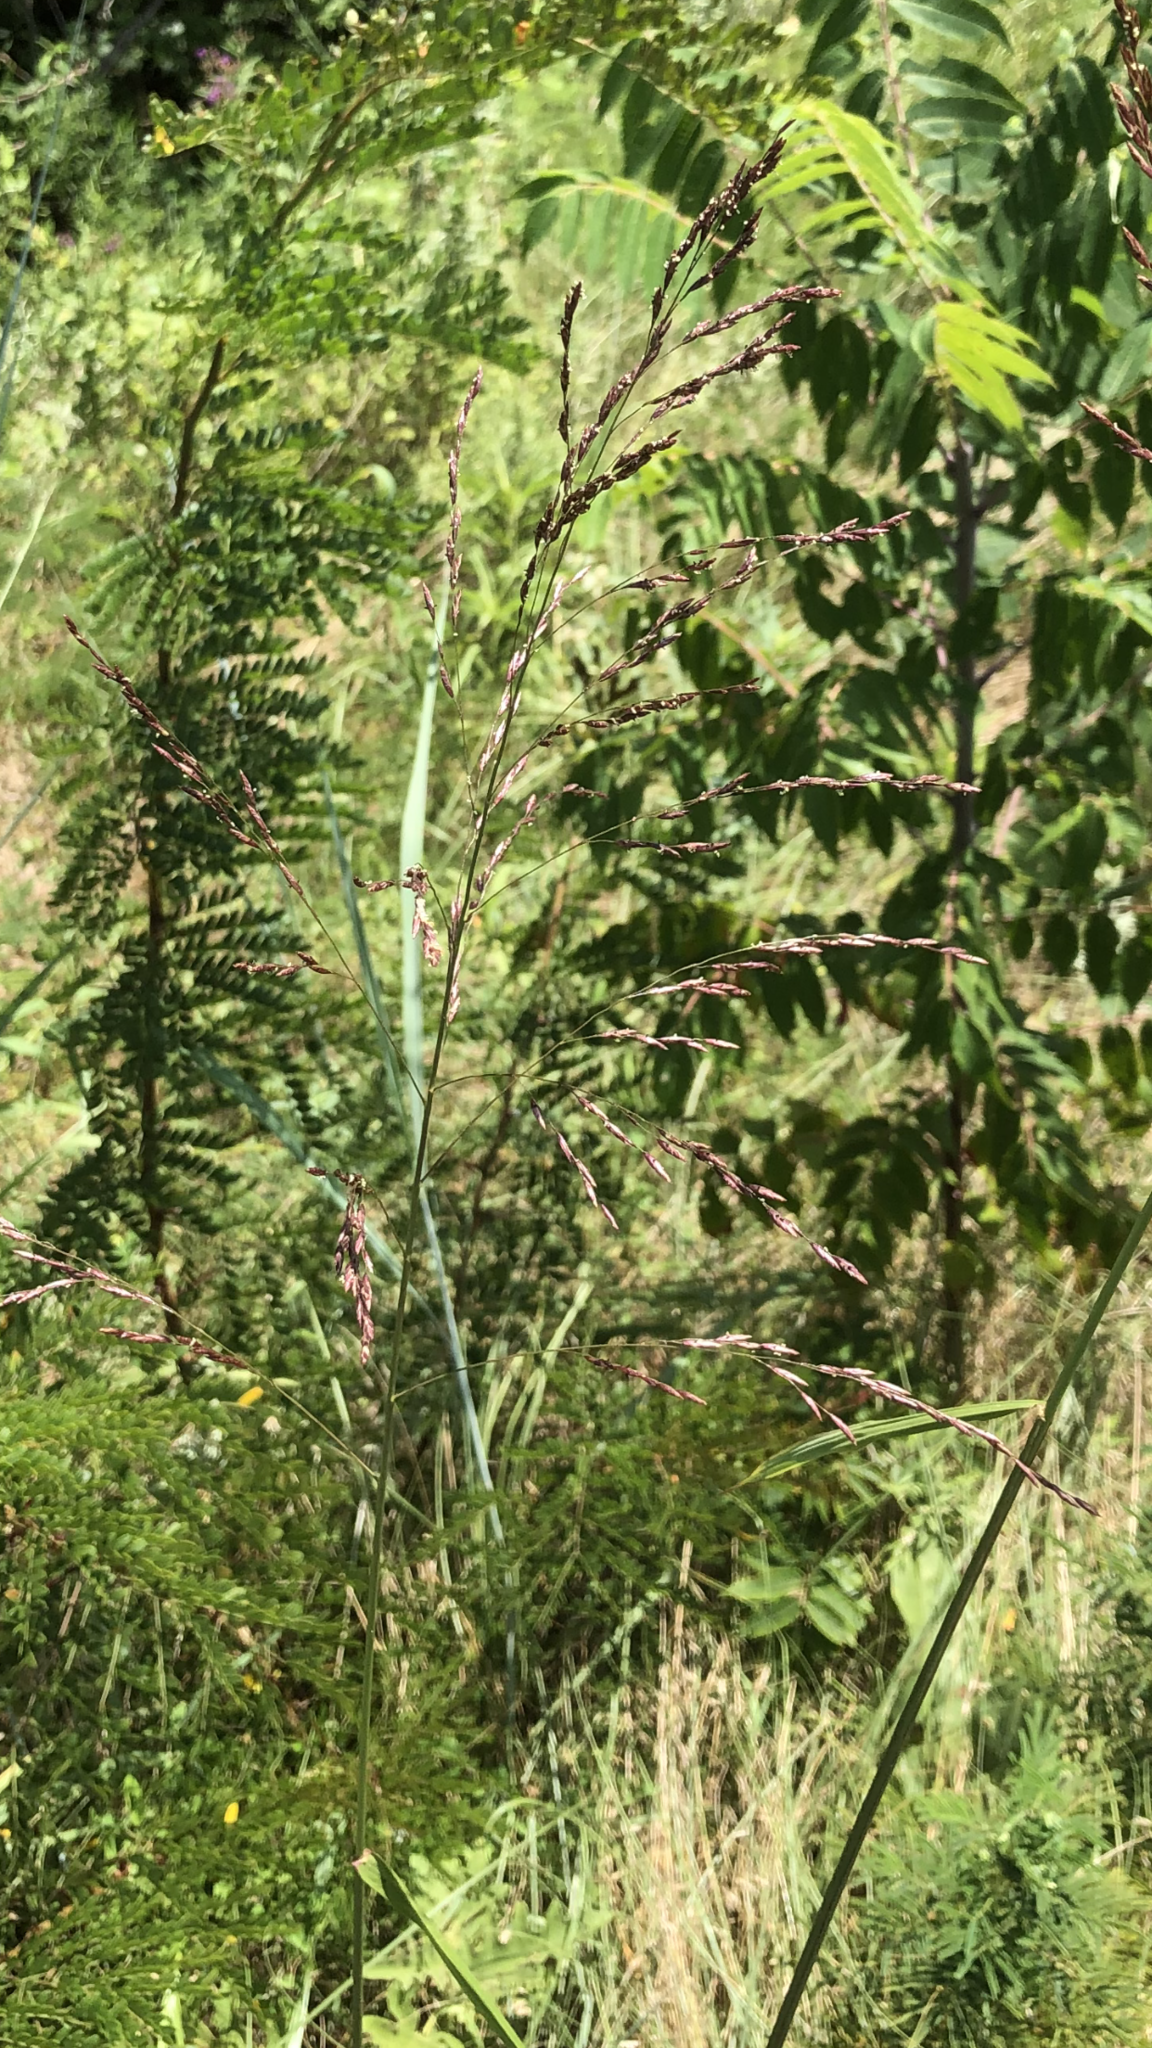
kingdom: Plantae
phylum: Tracheophyta
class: Liliopsida
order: Poales
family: Poaceae
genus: Tridens
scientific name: Tridens flavus
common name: Purpletop
